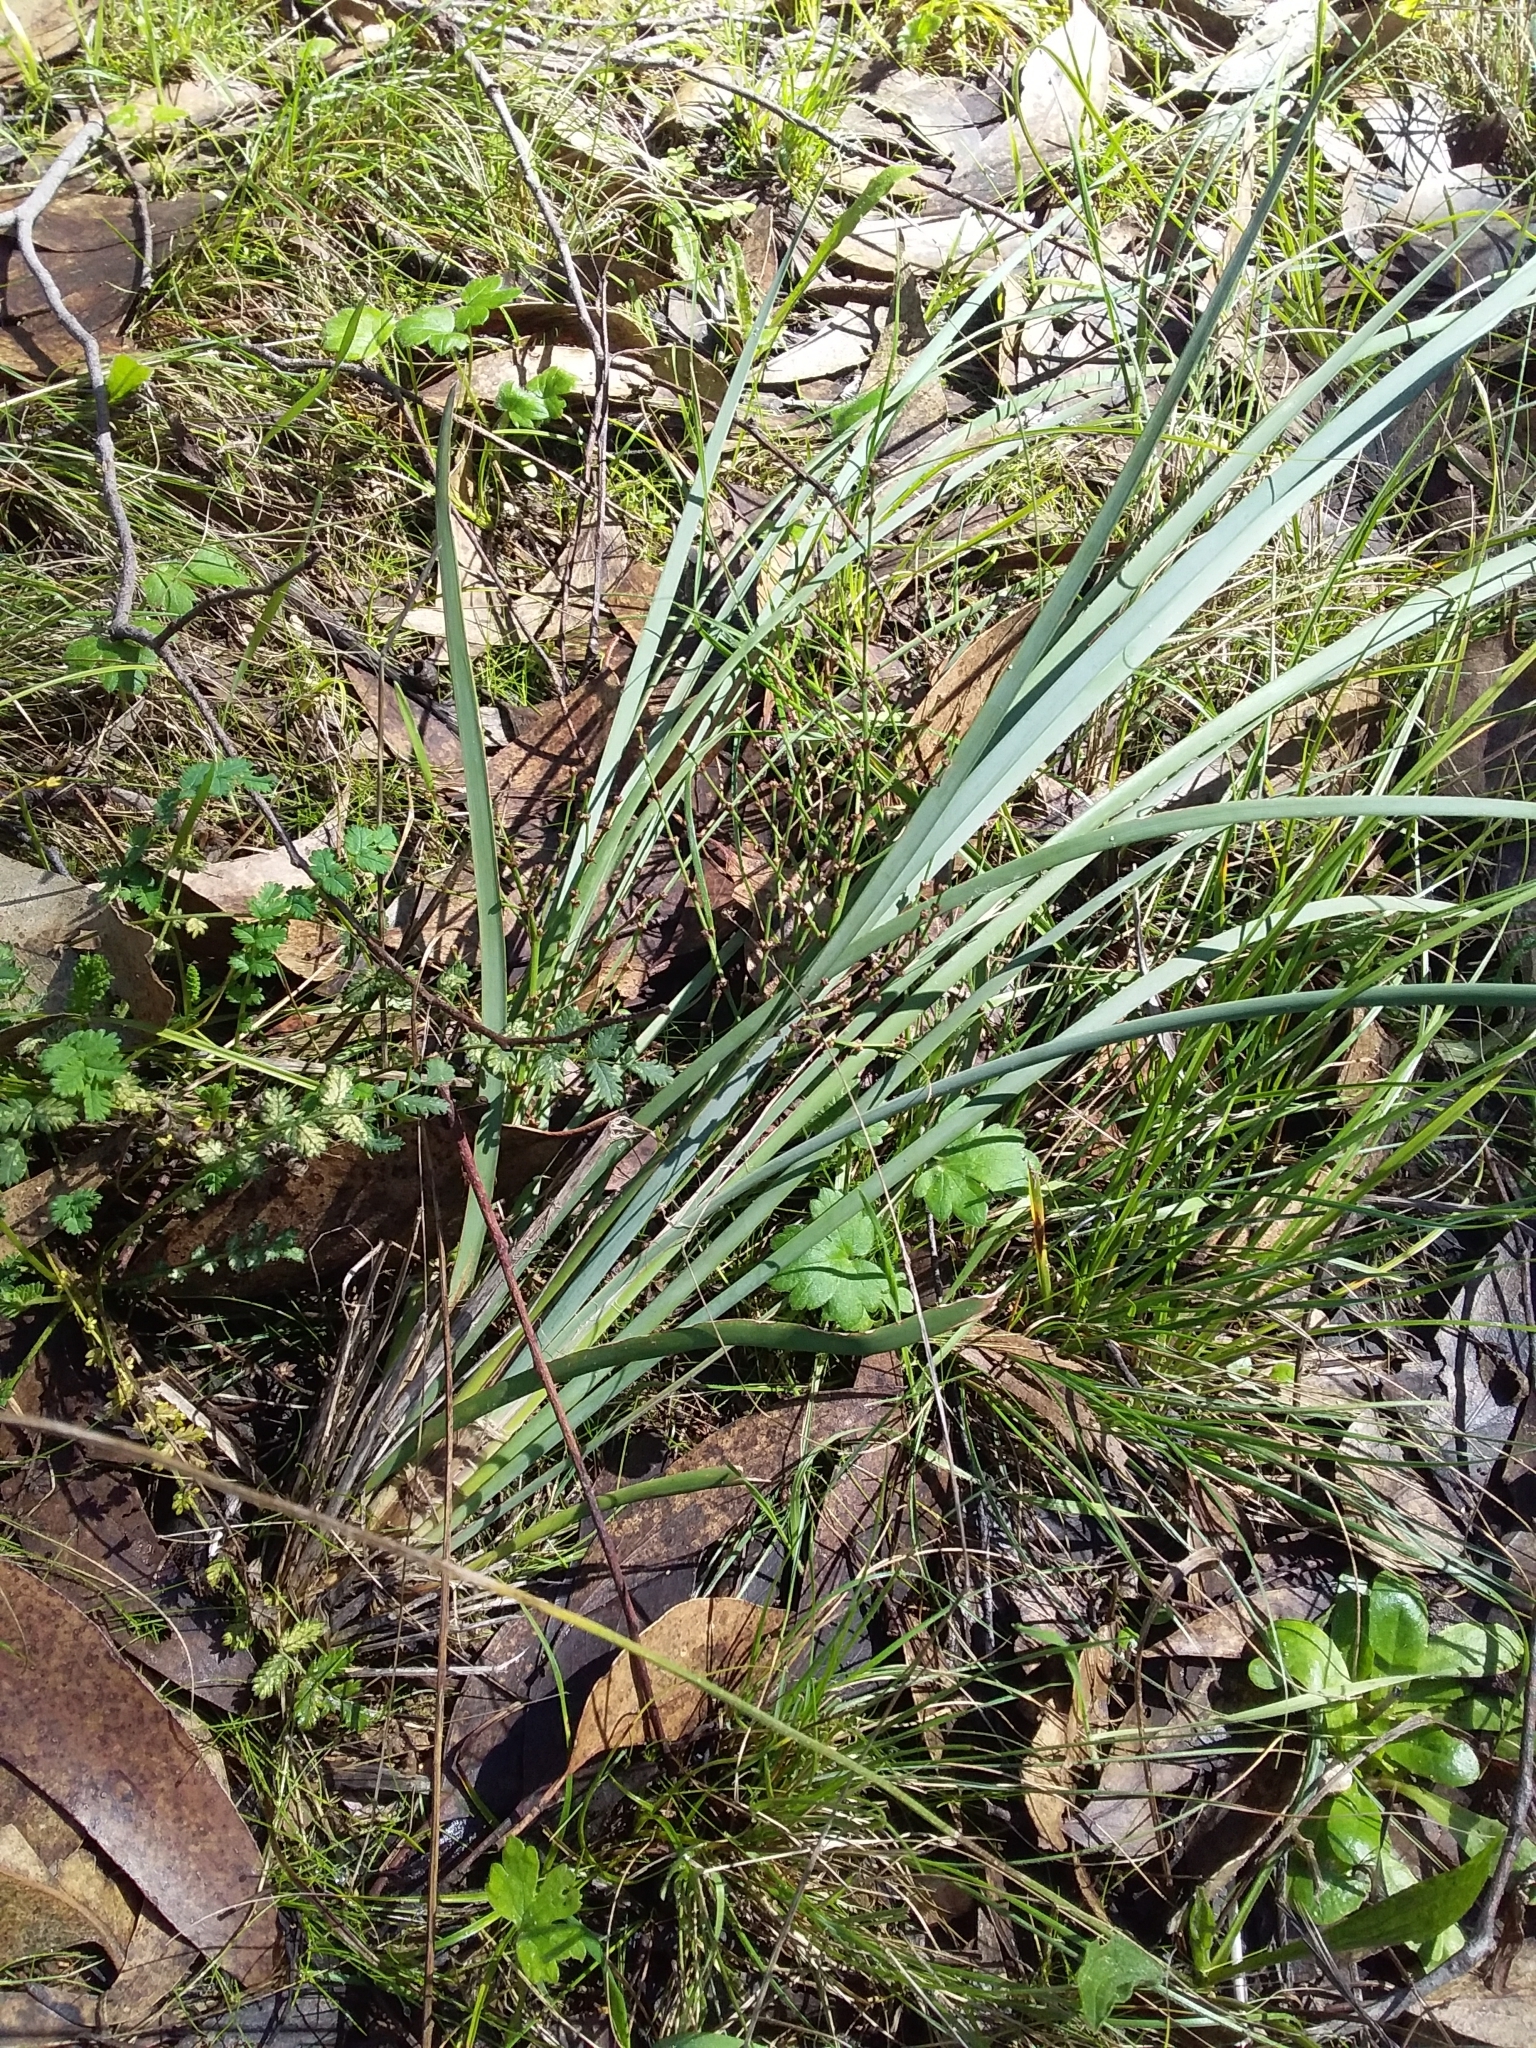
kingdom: Plantae
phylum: Tracheophyta
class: Liliopsida
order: Asparagales
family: Asparagaceae
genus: Lomandra
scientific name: Lomandra multiflora
